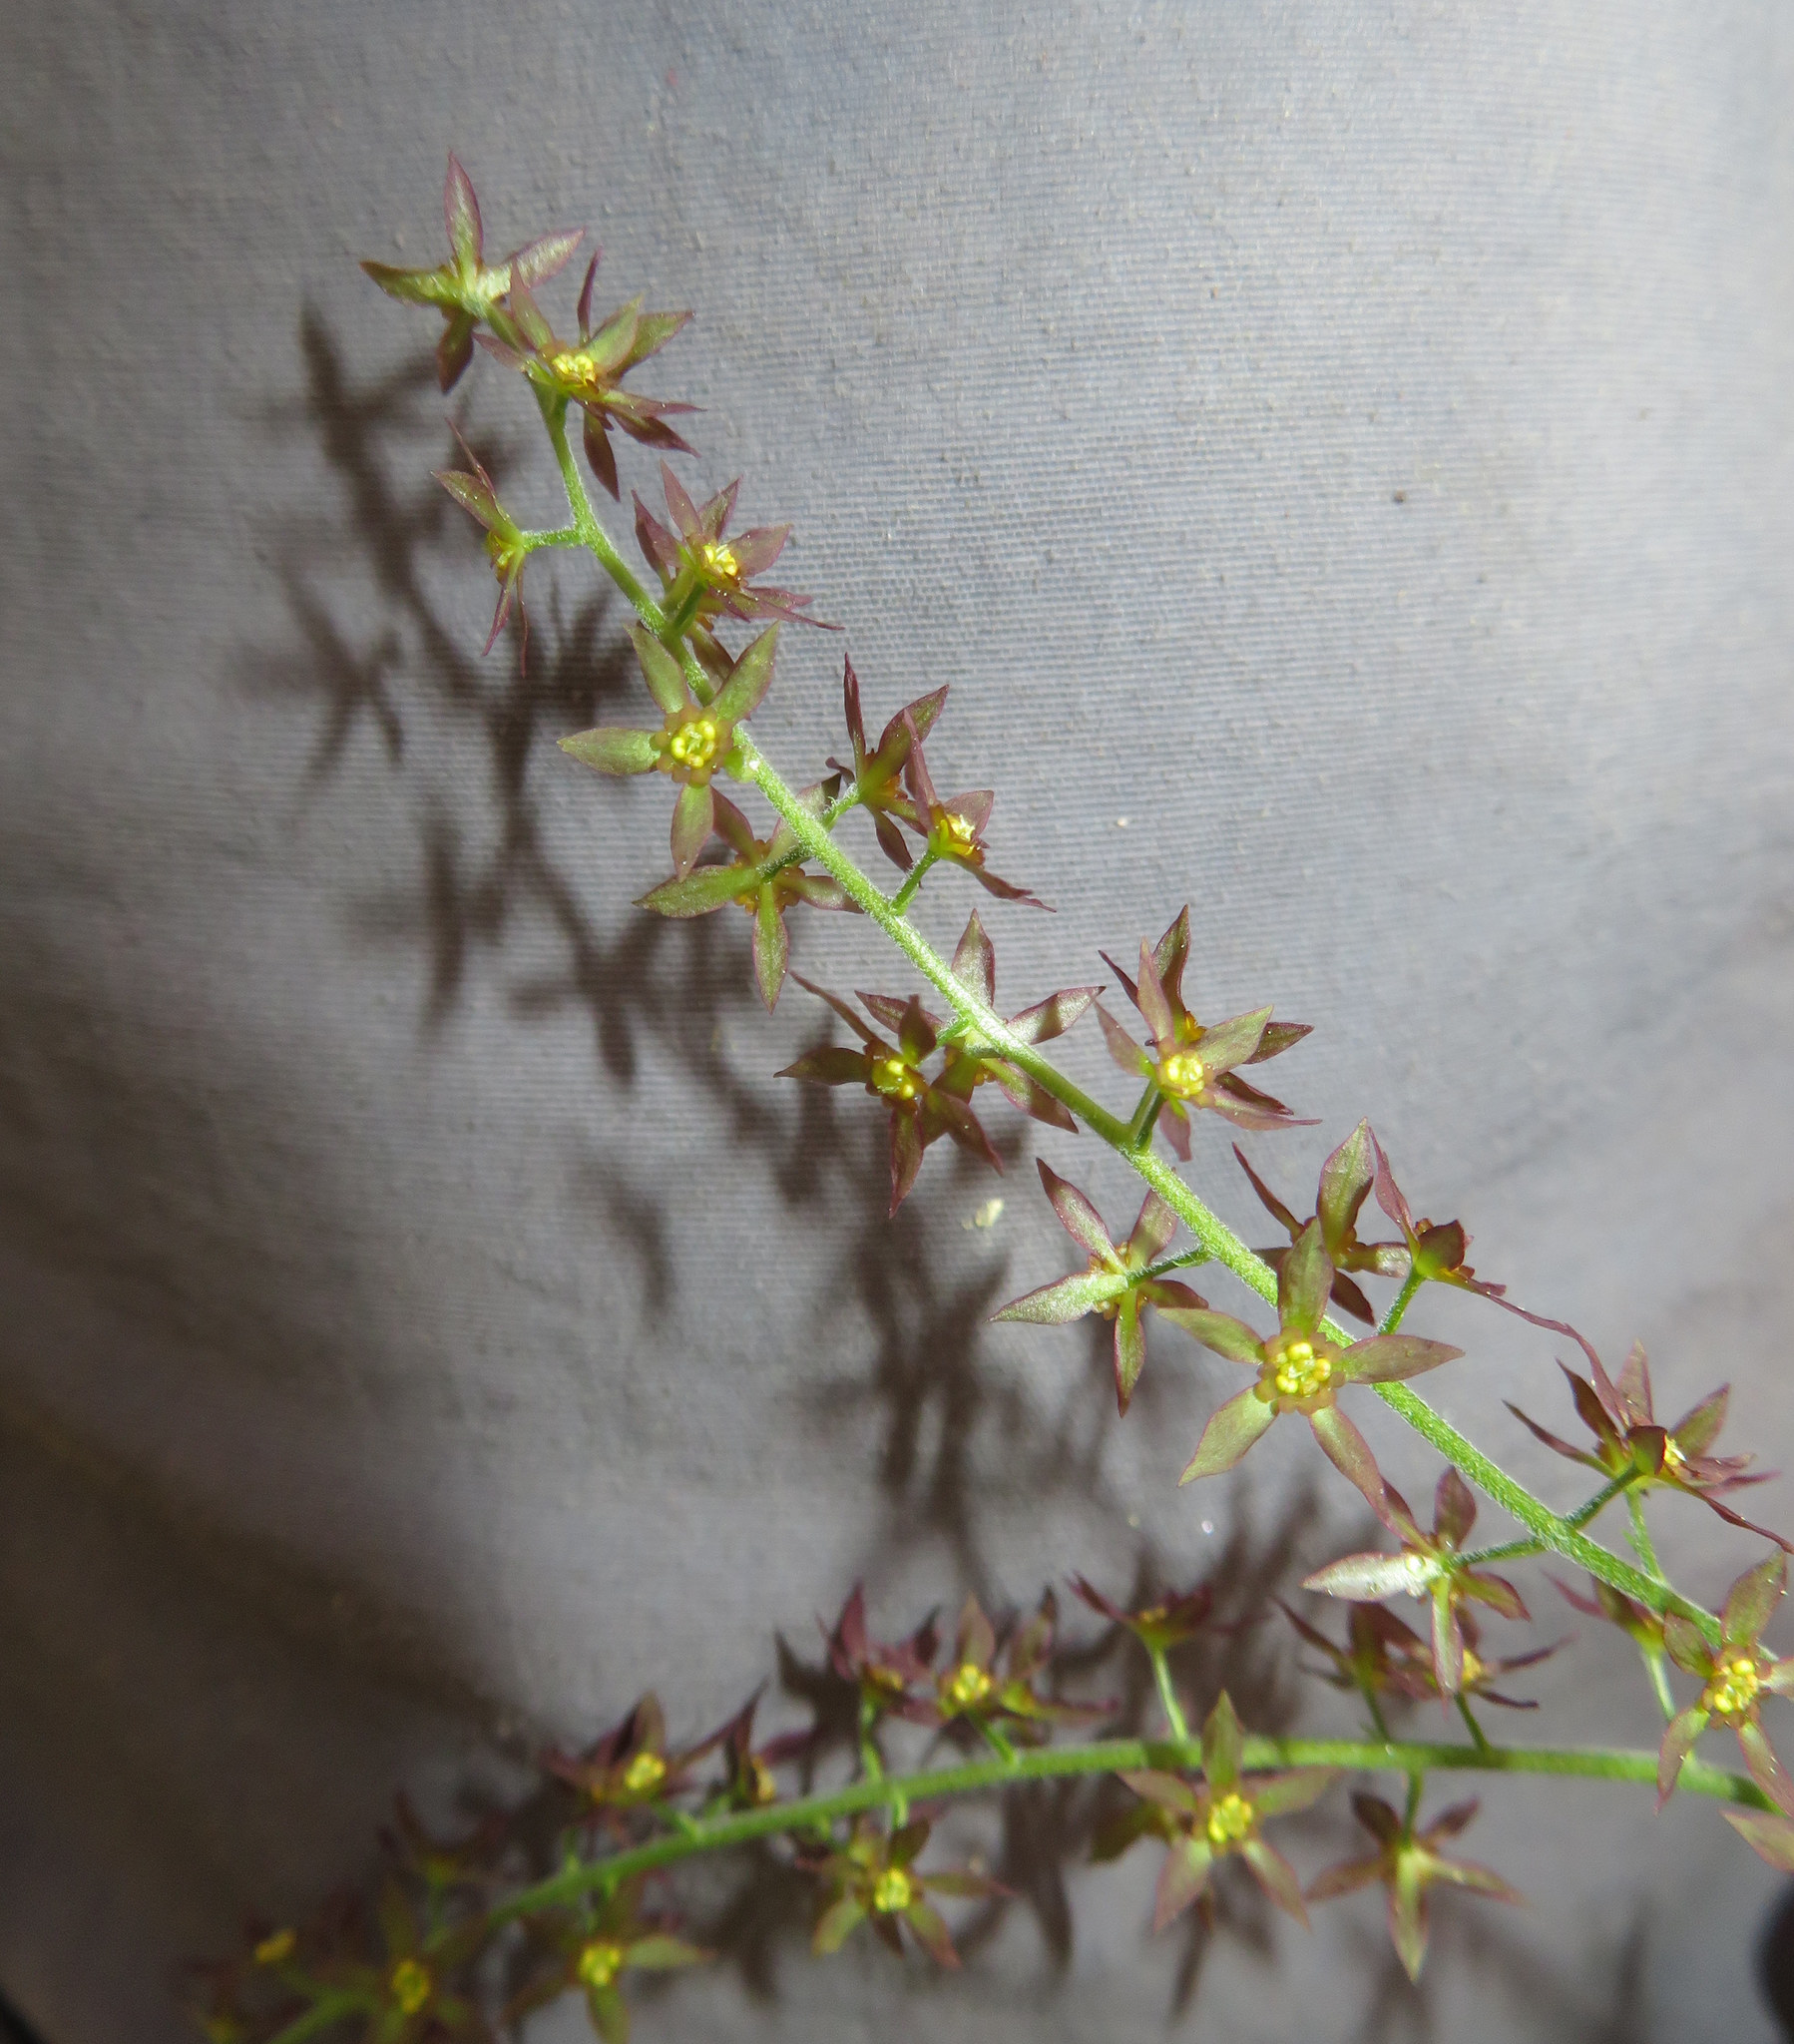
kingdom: Plantae
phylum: Tracheophyta
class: Magnoliopsida
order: Ranunculales
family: Ranunculaceae
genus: Xanthorhiza
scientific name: Xanthorhiza simplicissima
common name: Yellowroot
